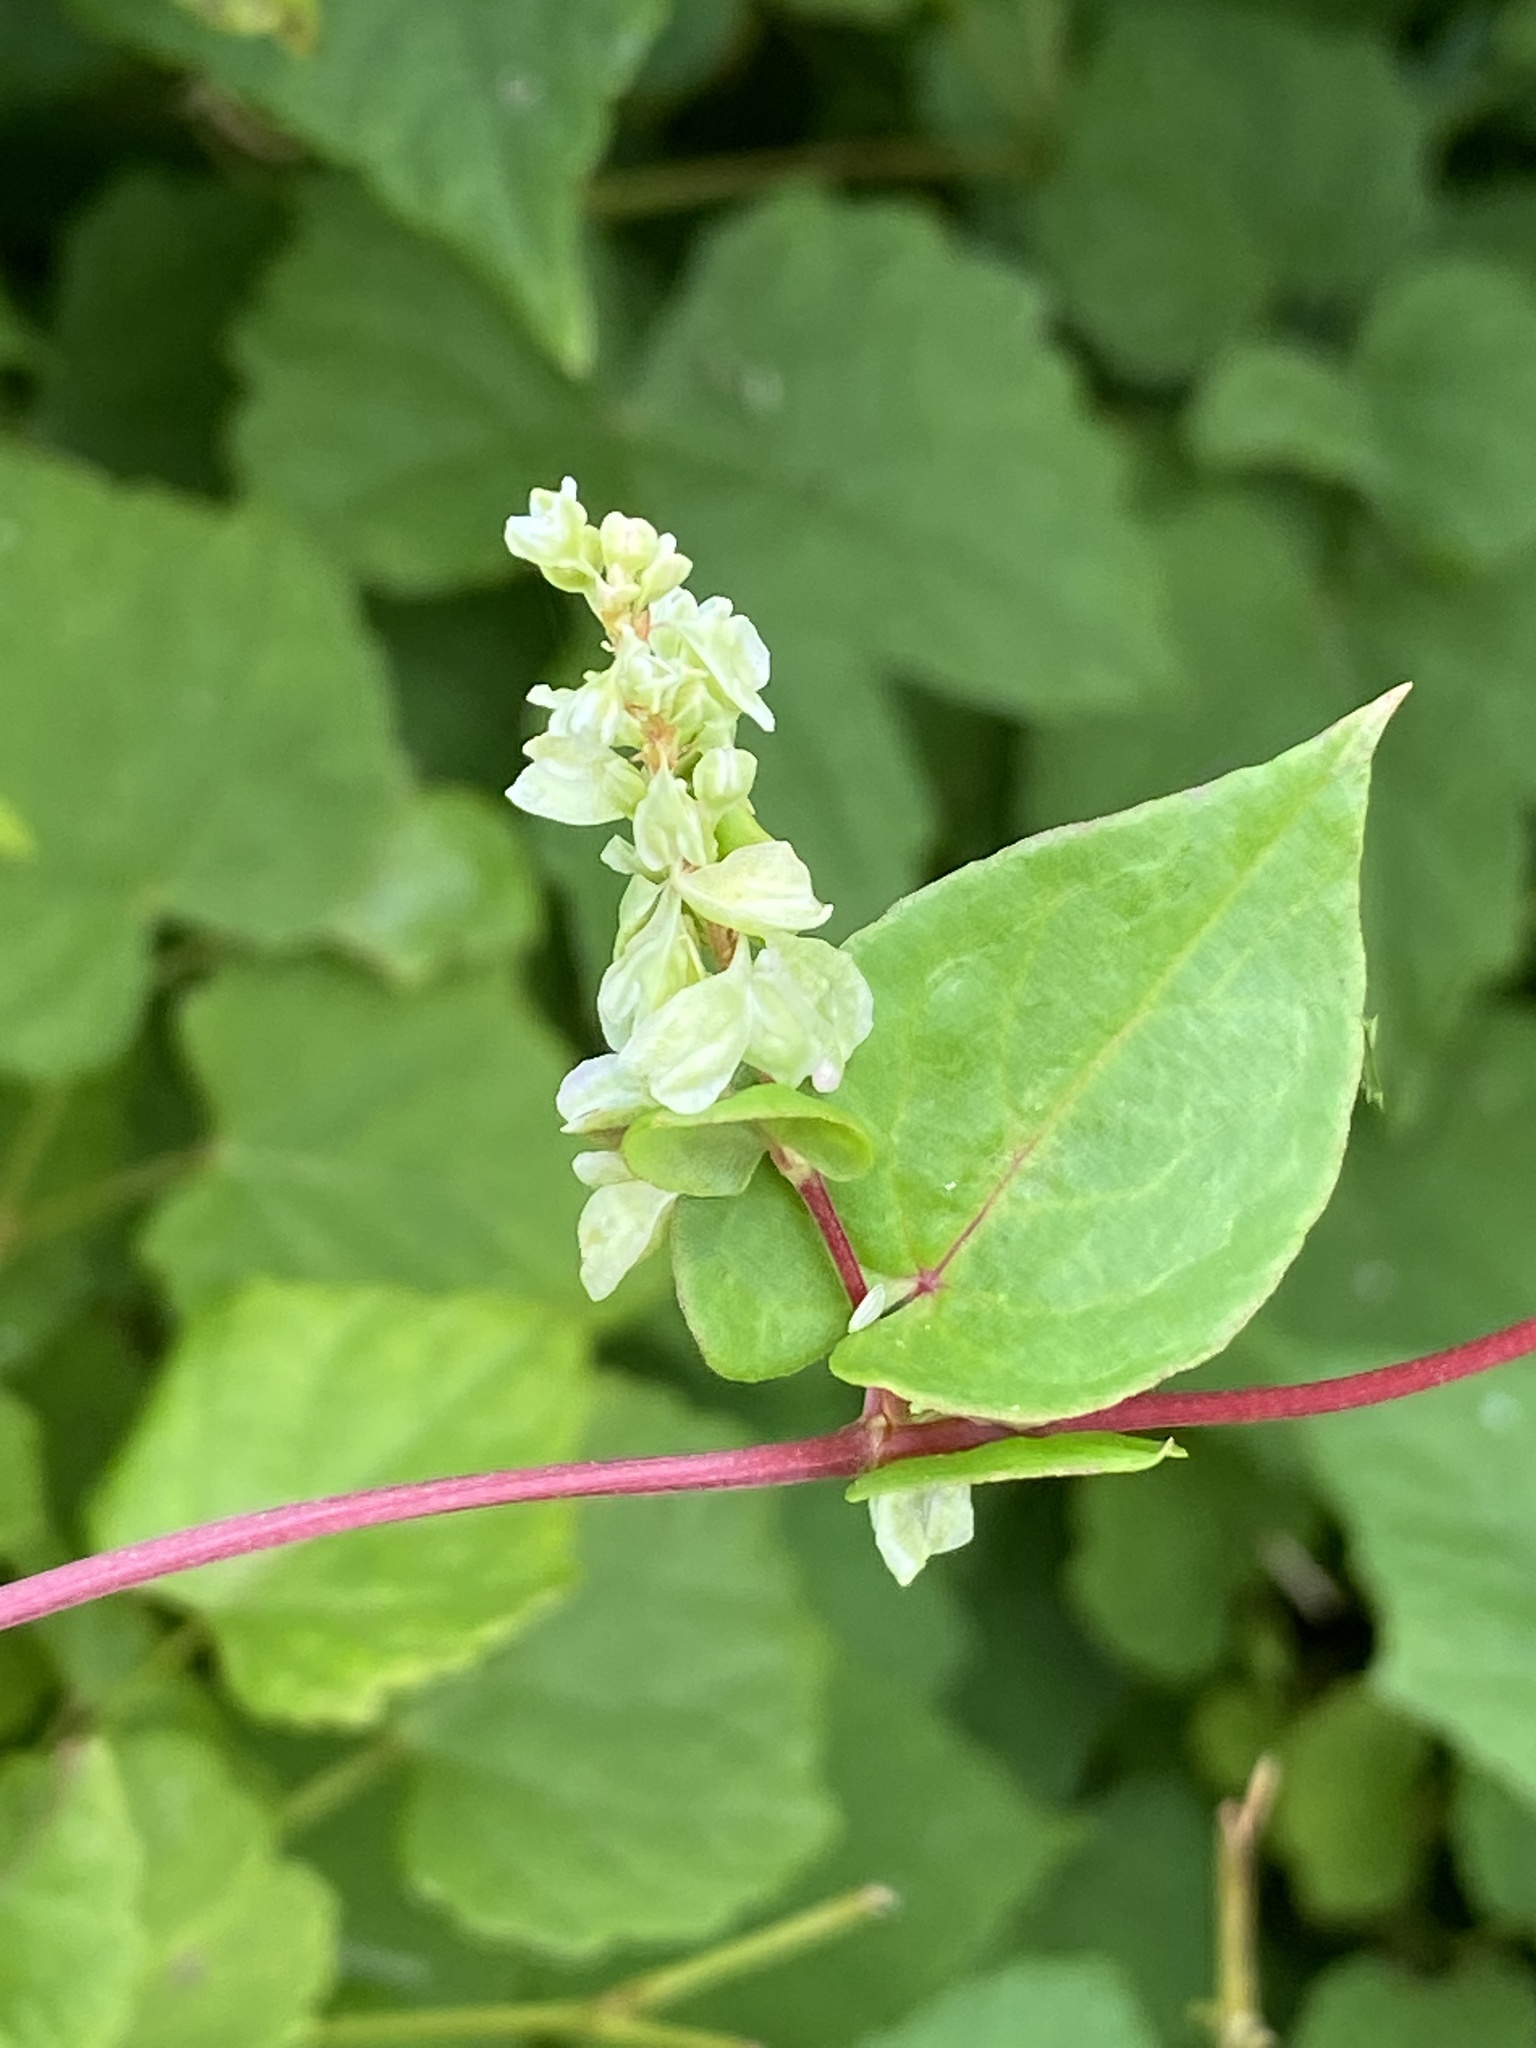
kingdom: Plantae
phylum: Tracheophyta
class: Magnoliopsida
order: Caryophyllales
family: Polygonaceae
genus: Fallopia
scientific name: Fallopia scandens
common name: Climbing false buckwheat
